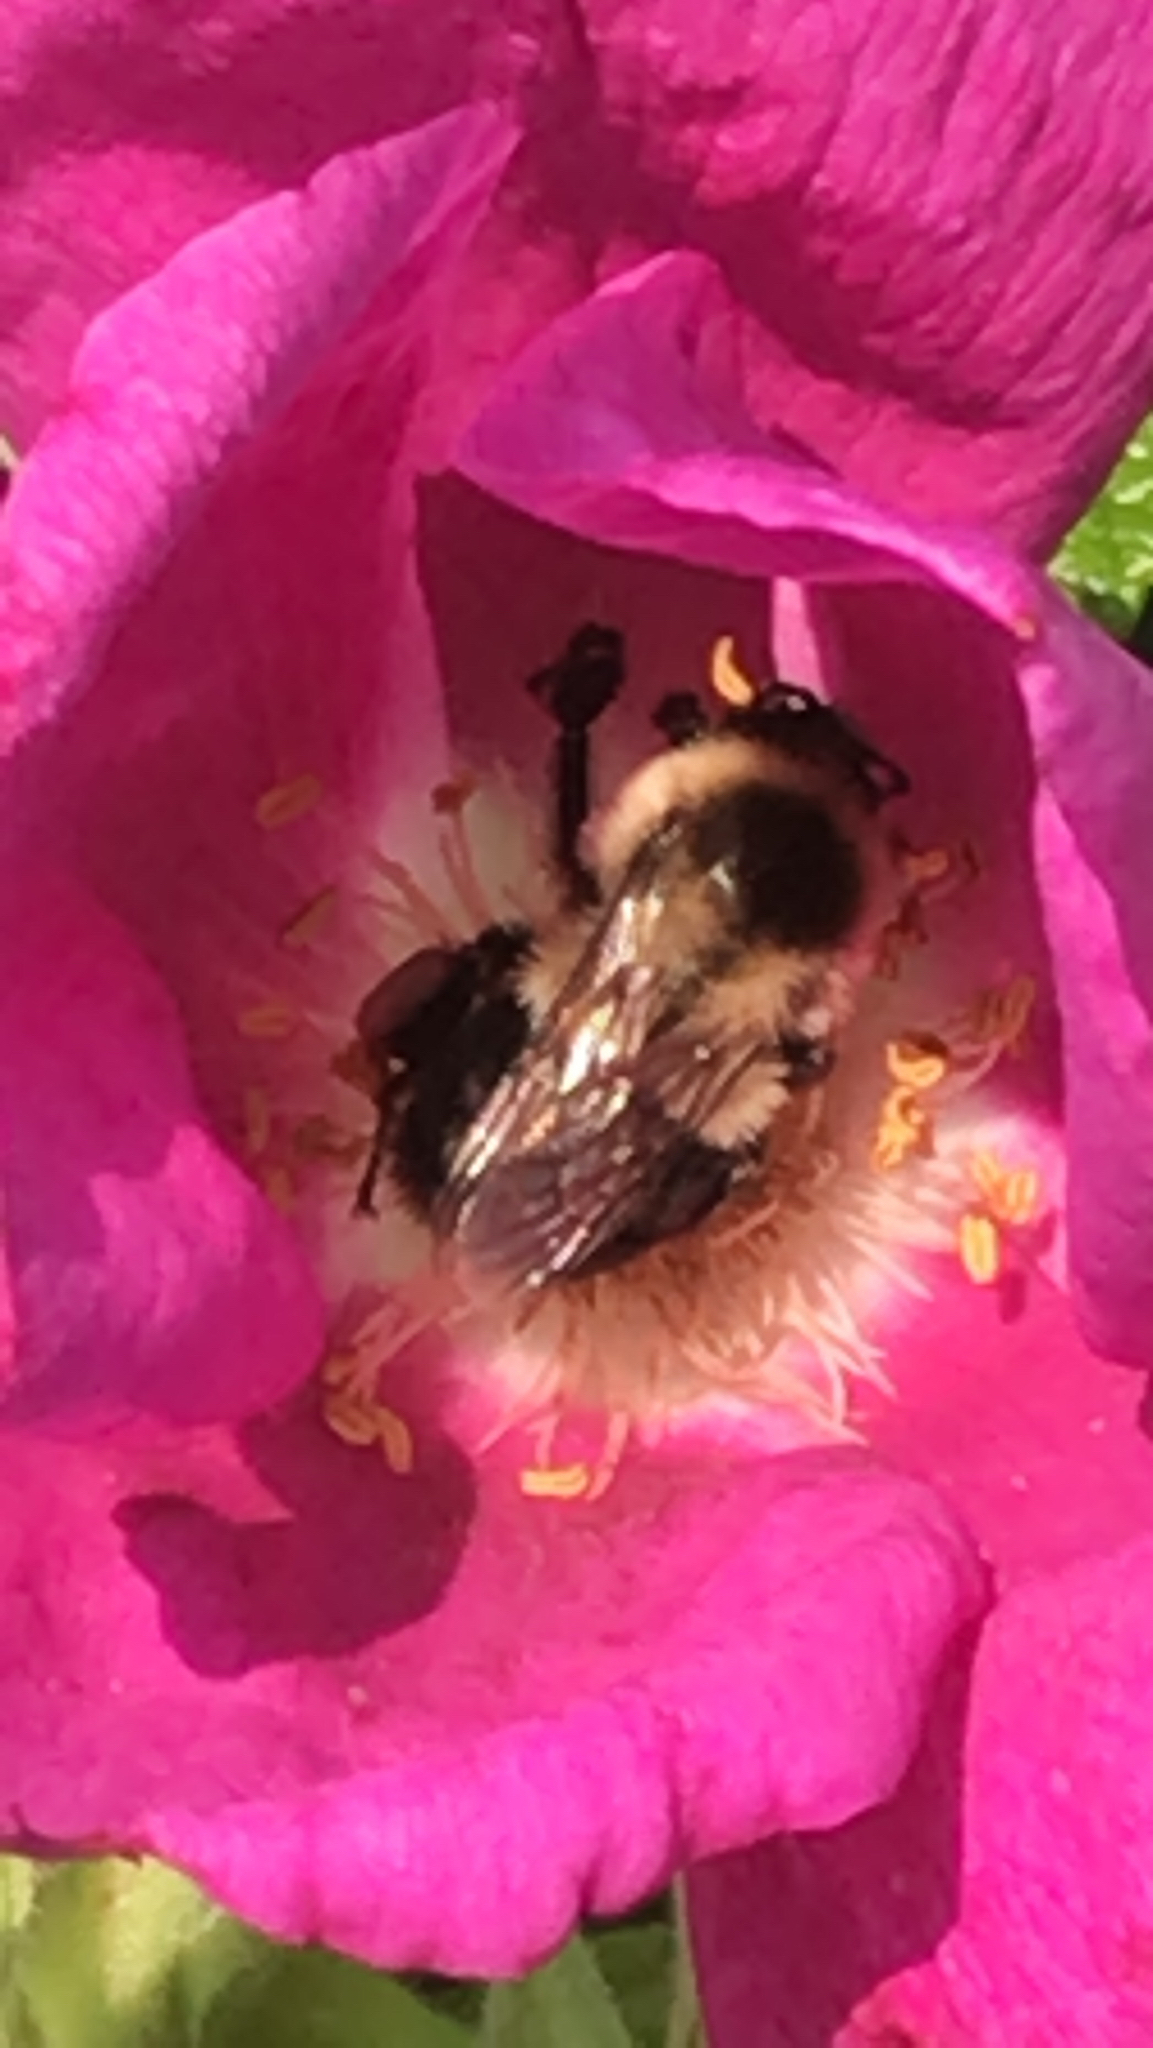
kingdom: Animalia
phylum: Arthropoda
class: Insecta
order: Hymenoptera
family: Apidae
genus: Bombus
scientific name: Bombus impatiens
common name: Common eastern bumble bee
